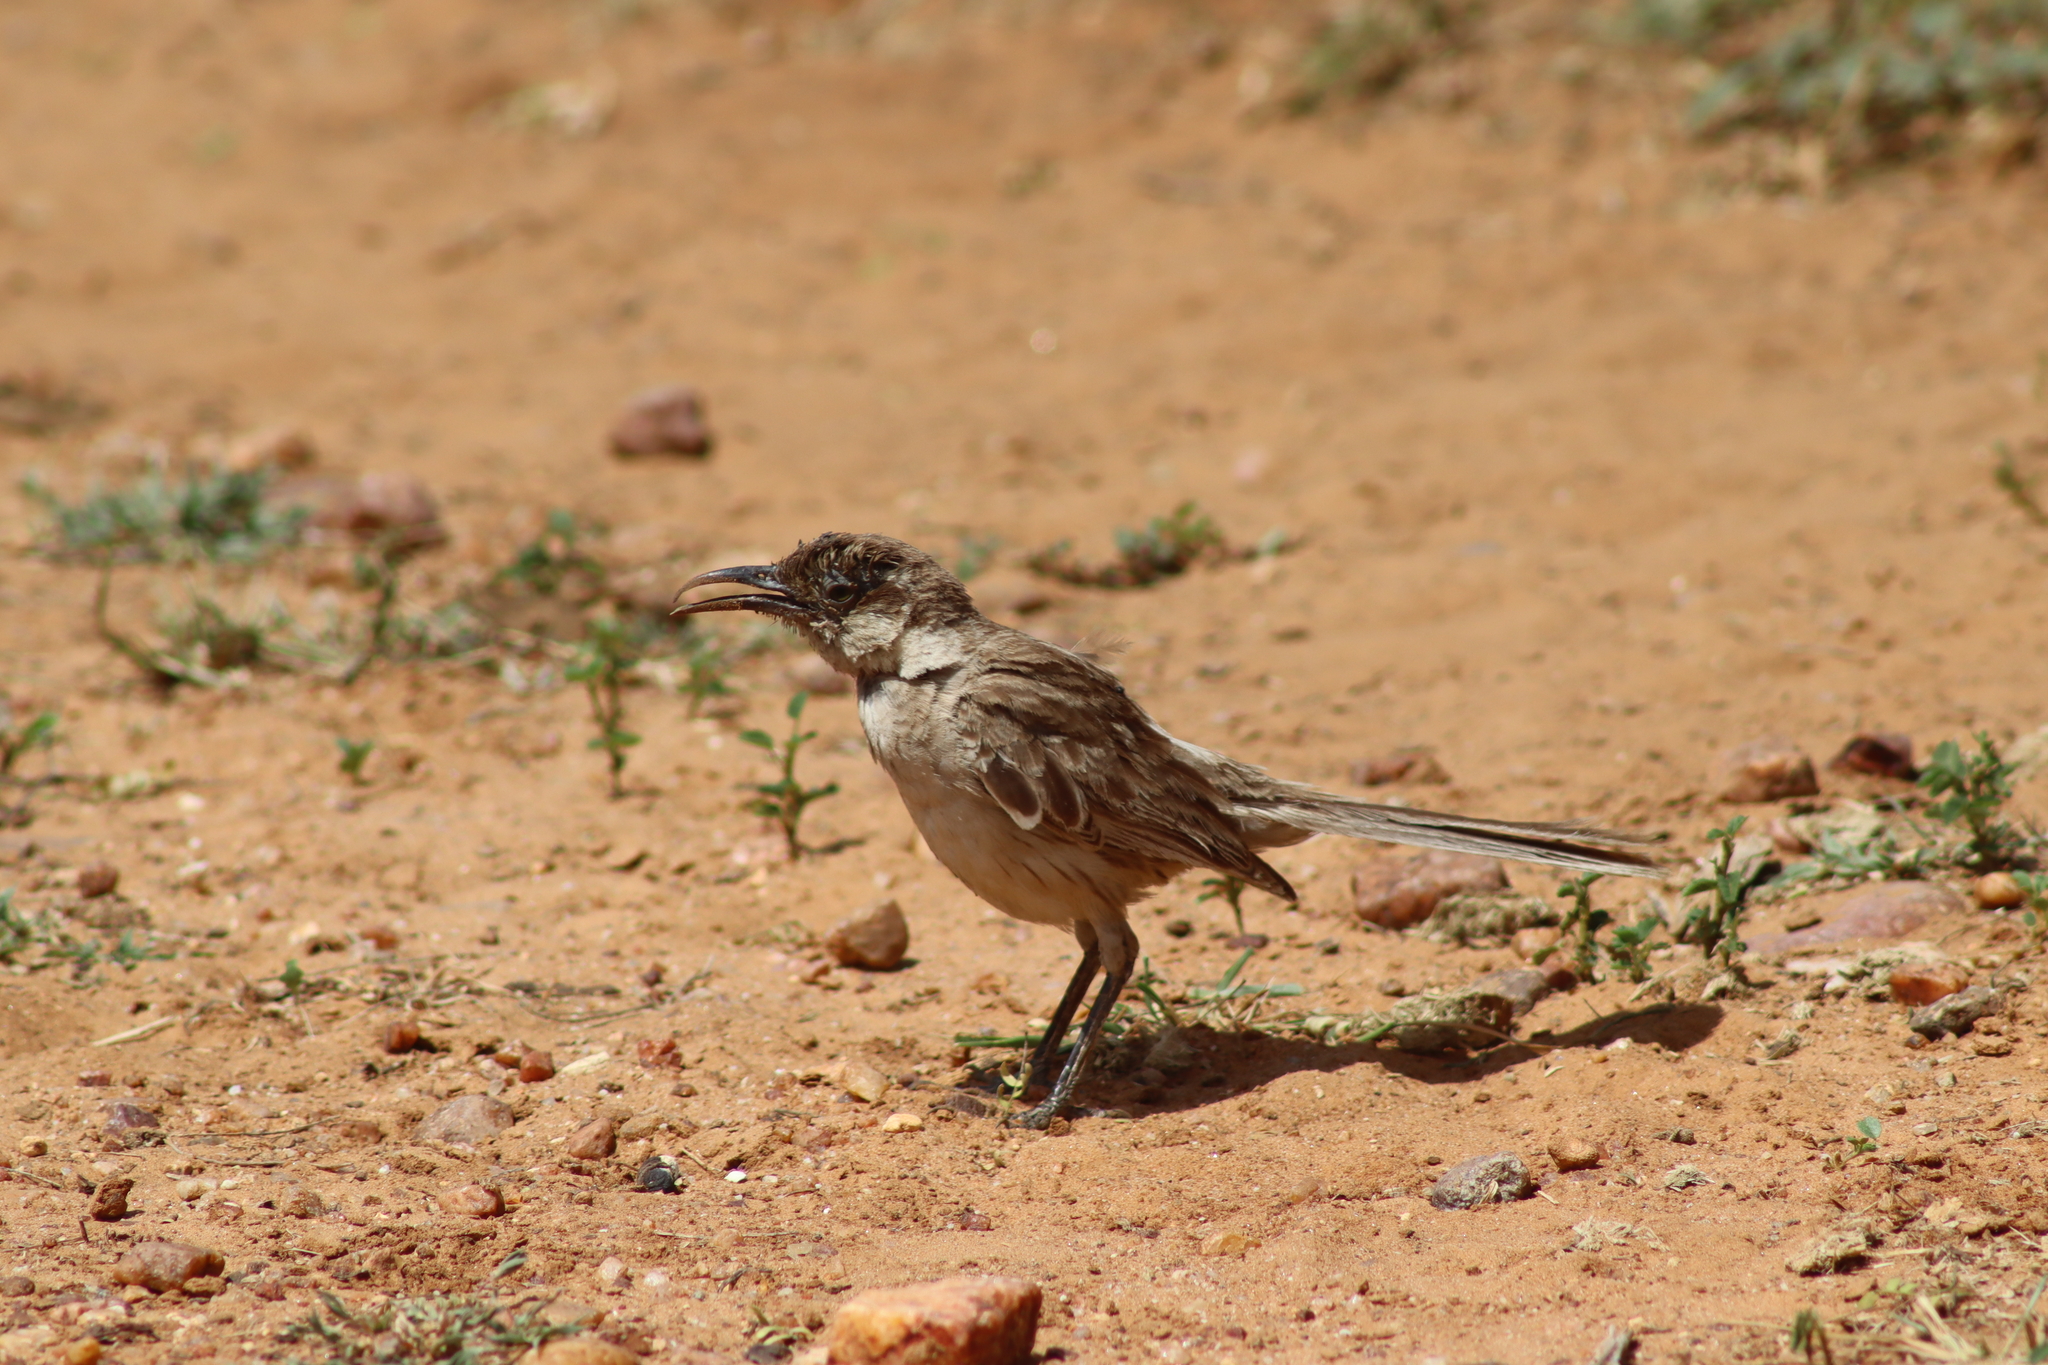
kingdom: Animalia
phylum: Chordata
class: Aves
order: Passeriformes
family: Mimidae
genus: Mimus
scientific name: Mimus saturninus
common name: Chalk-browed mockingbird
